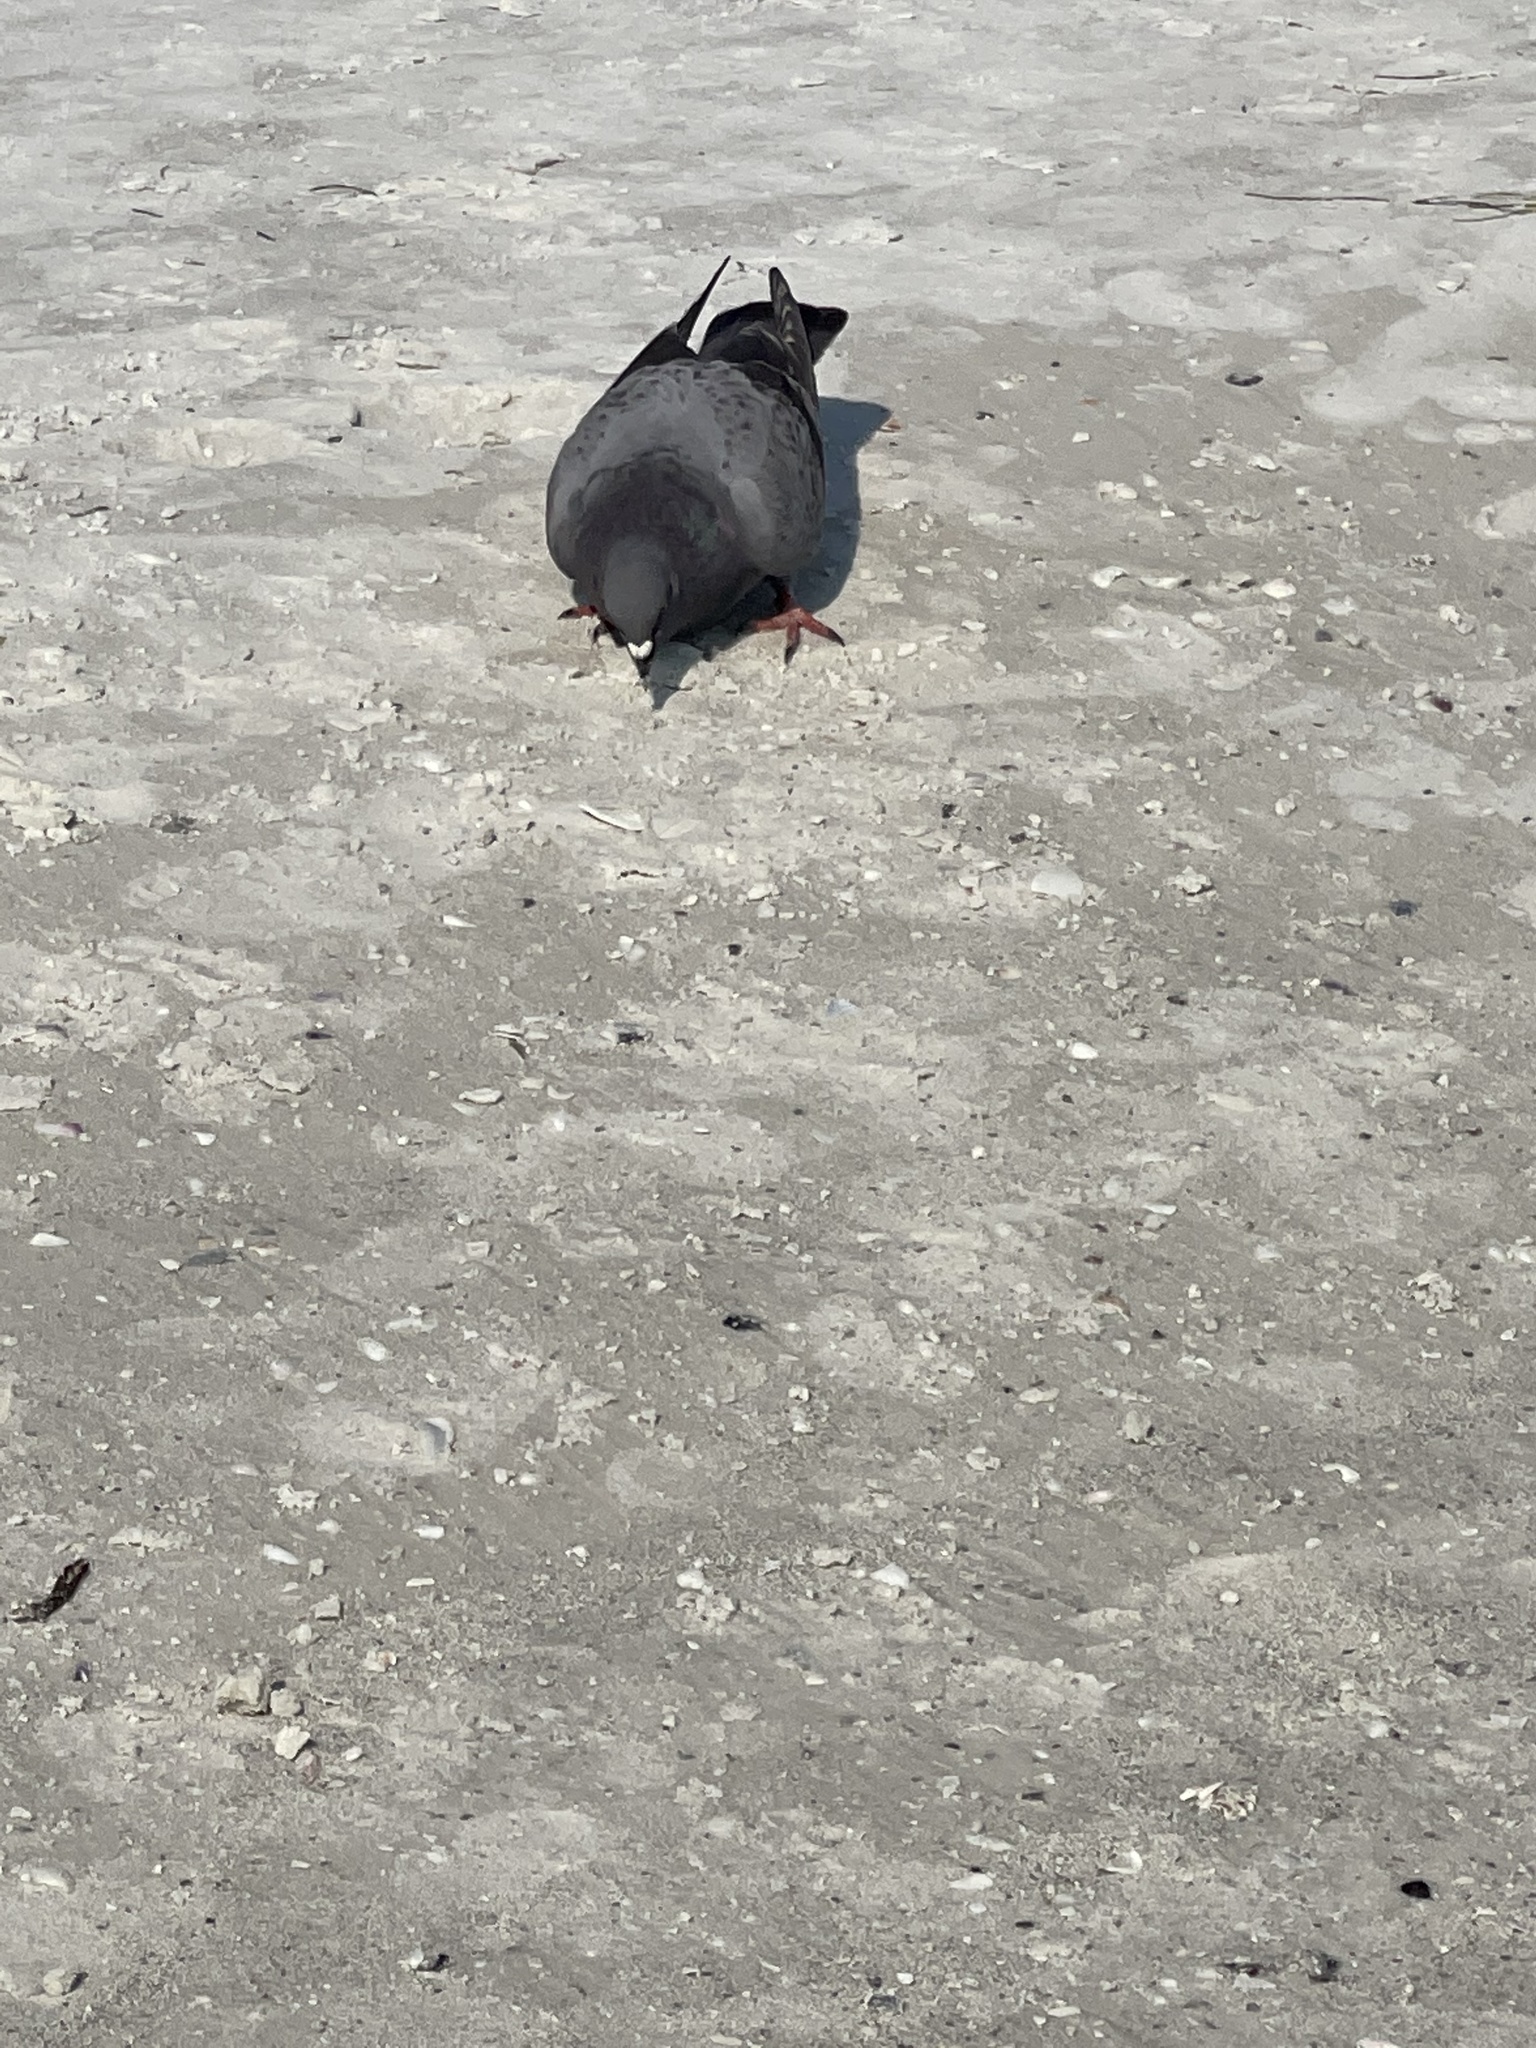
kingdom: Animalia
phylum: Chordata
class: Aves
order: Columbiformes
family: Columbidae
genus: Columba
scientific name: Columba livia
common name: Rock pigeon
